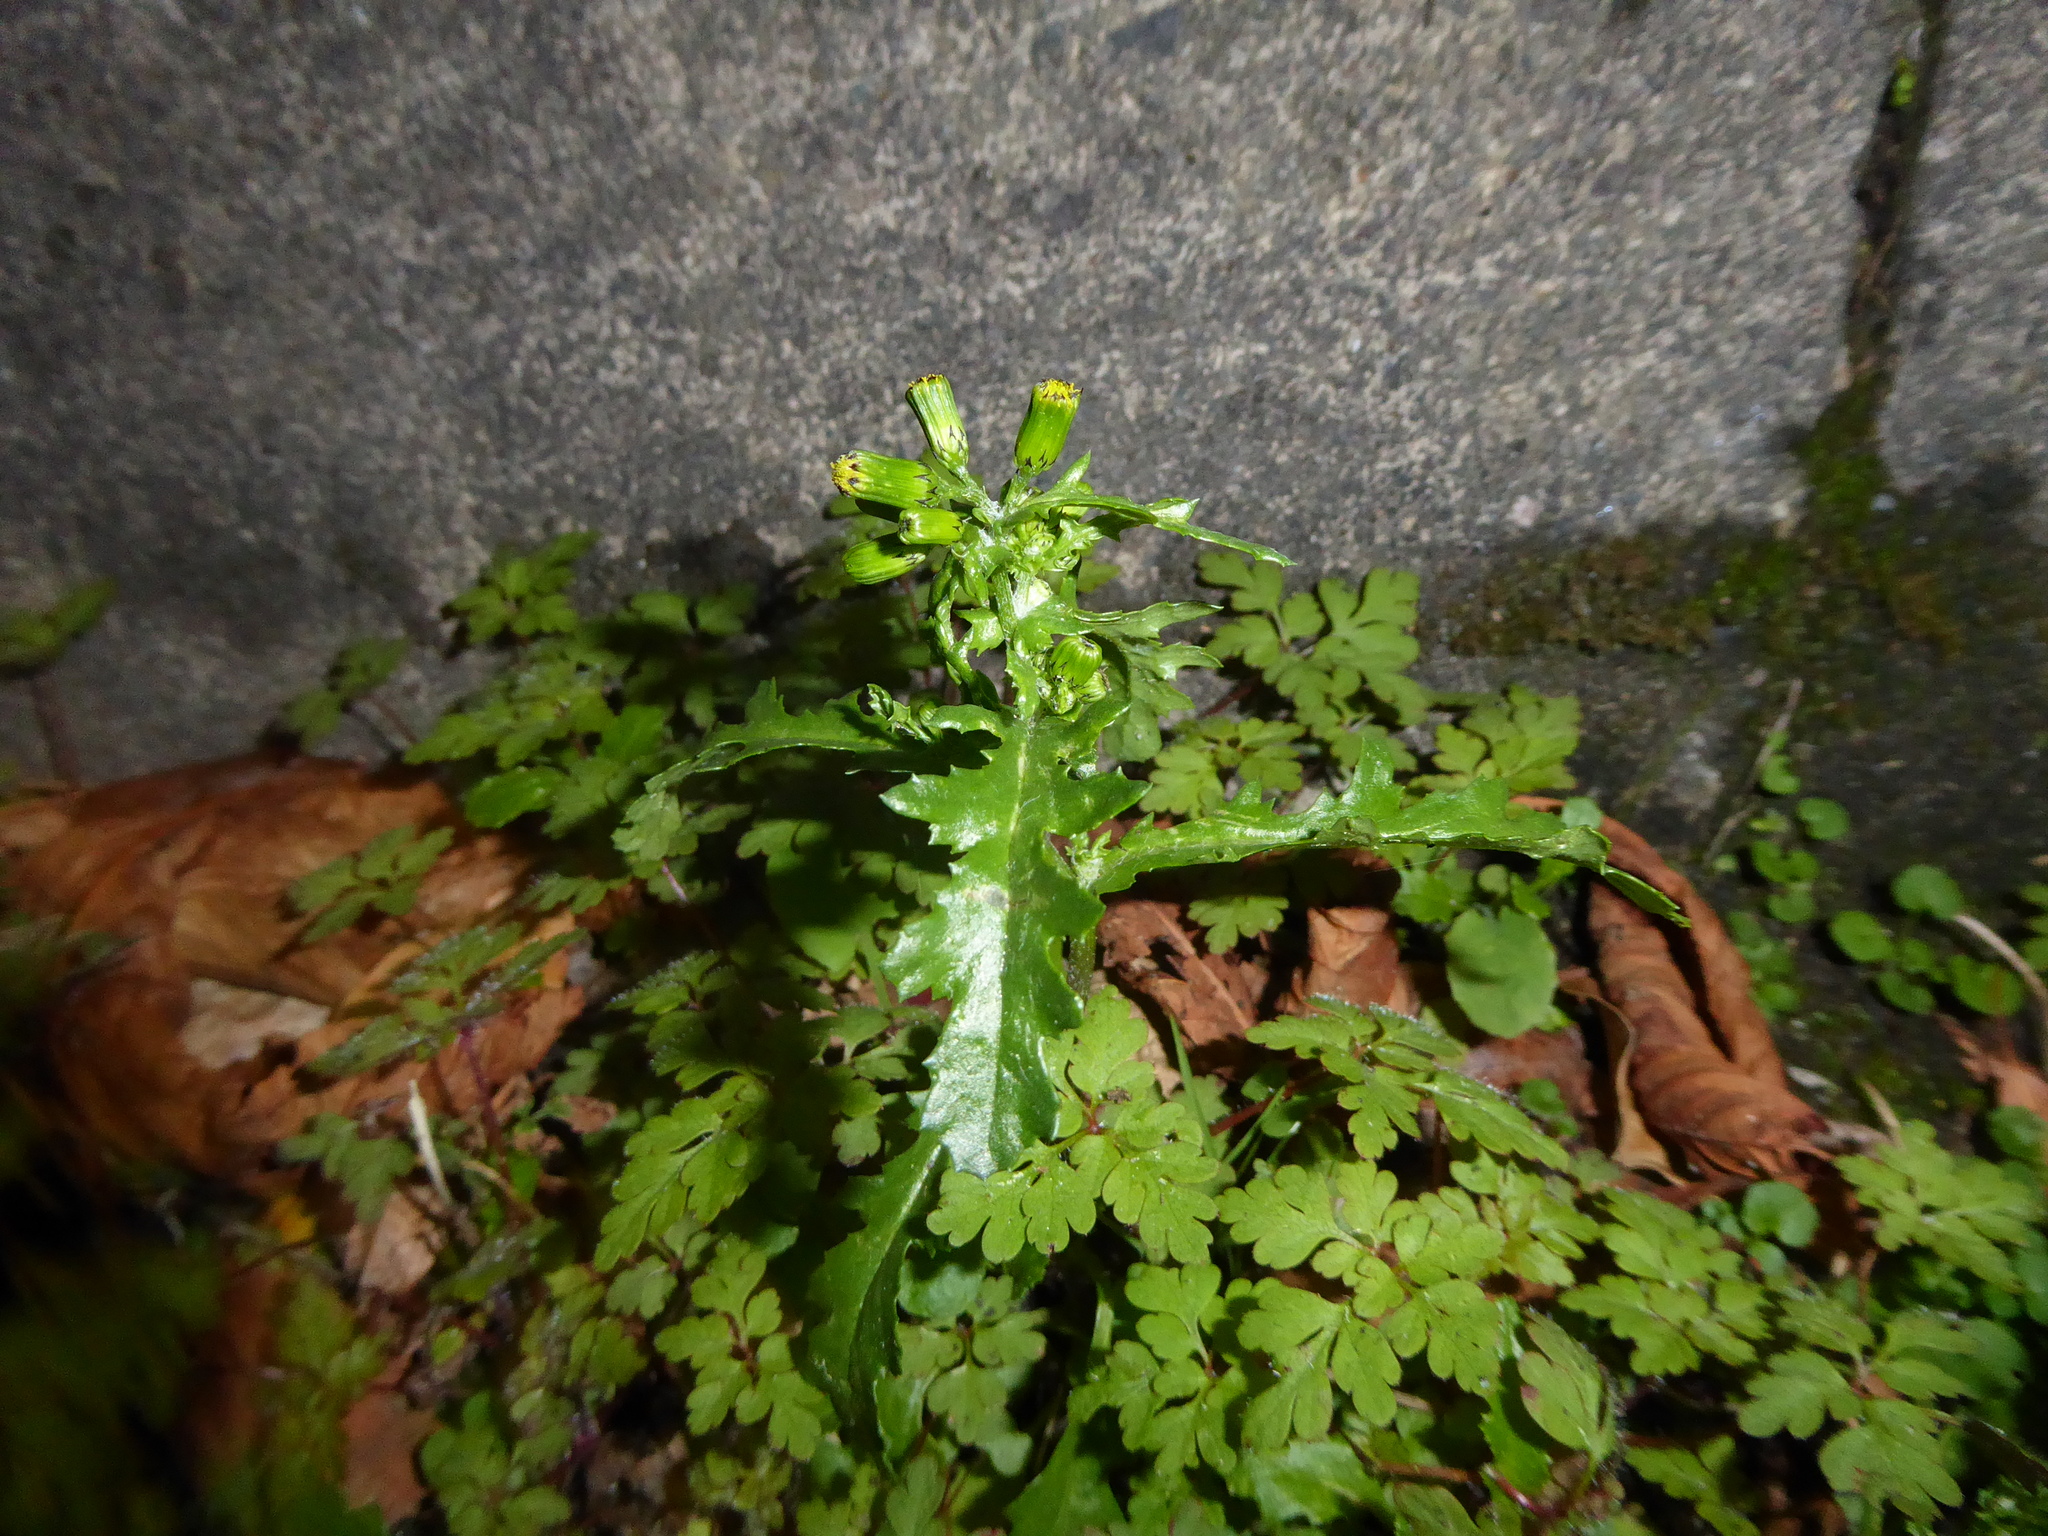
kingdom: Plantae
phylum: Tracheophyta
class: Magnoliopsida
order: Asterales
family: Asteraceae
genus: Senecio
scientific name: Senecio vulgaris
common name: Old-man-in-the-spring
